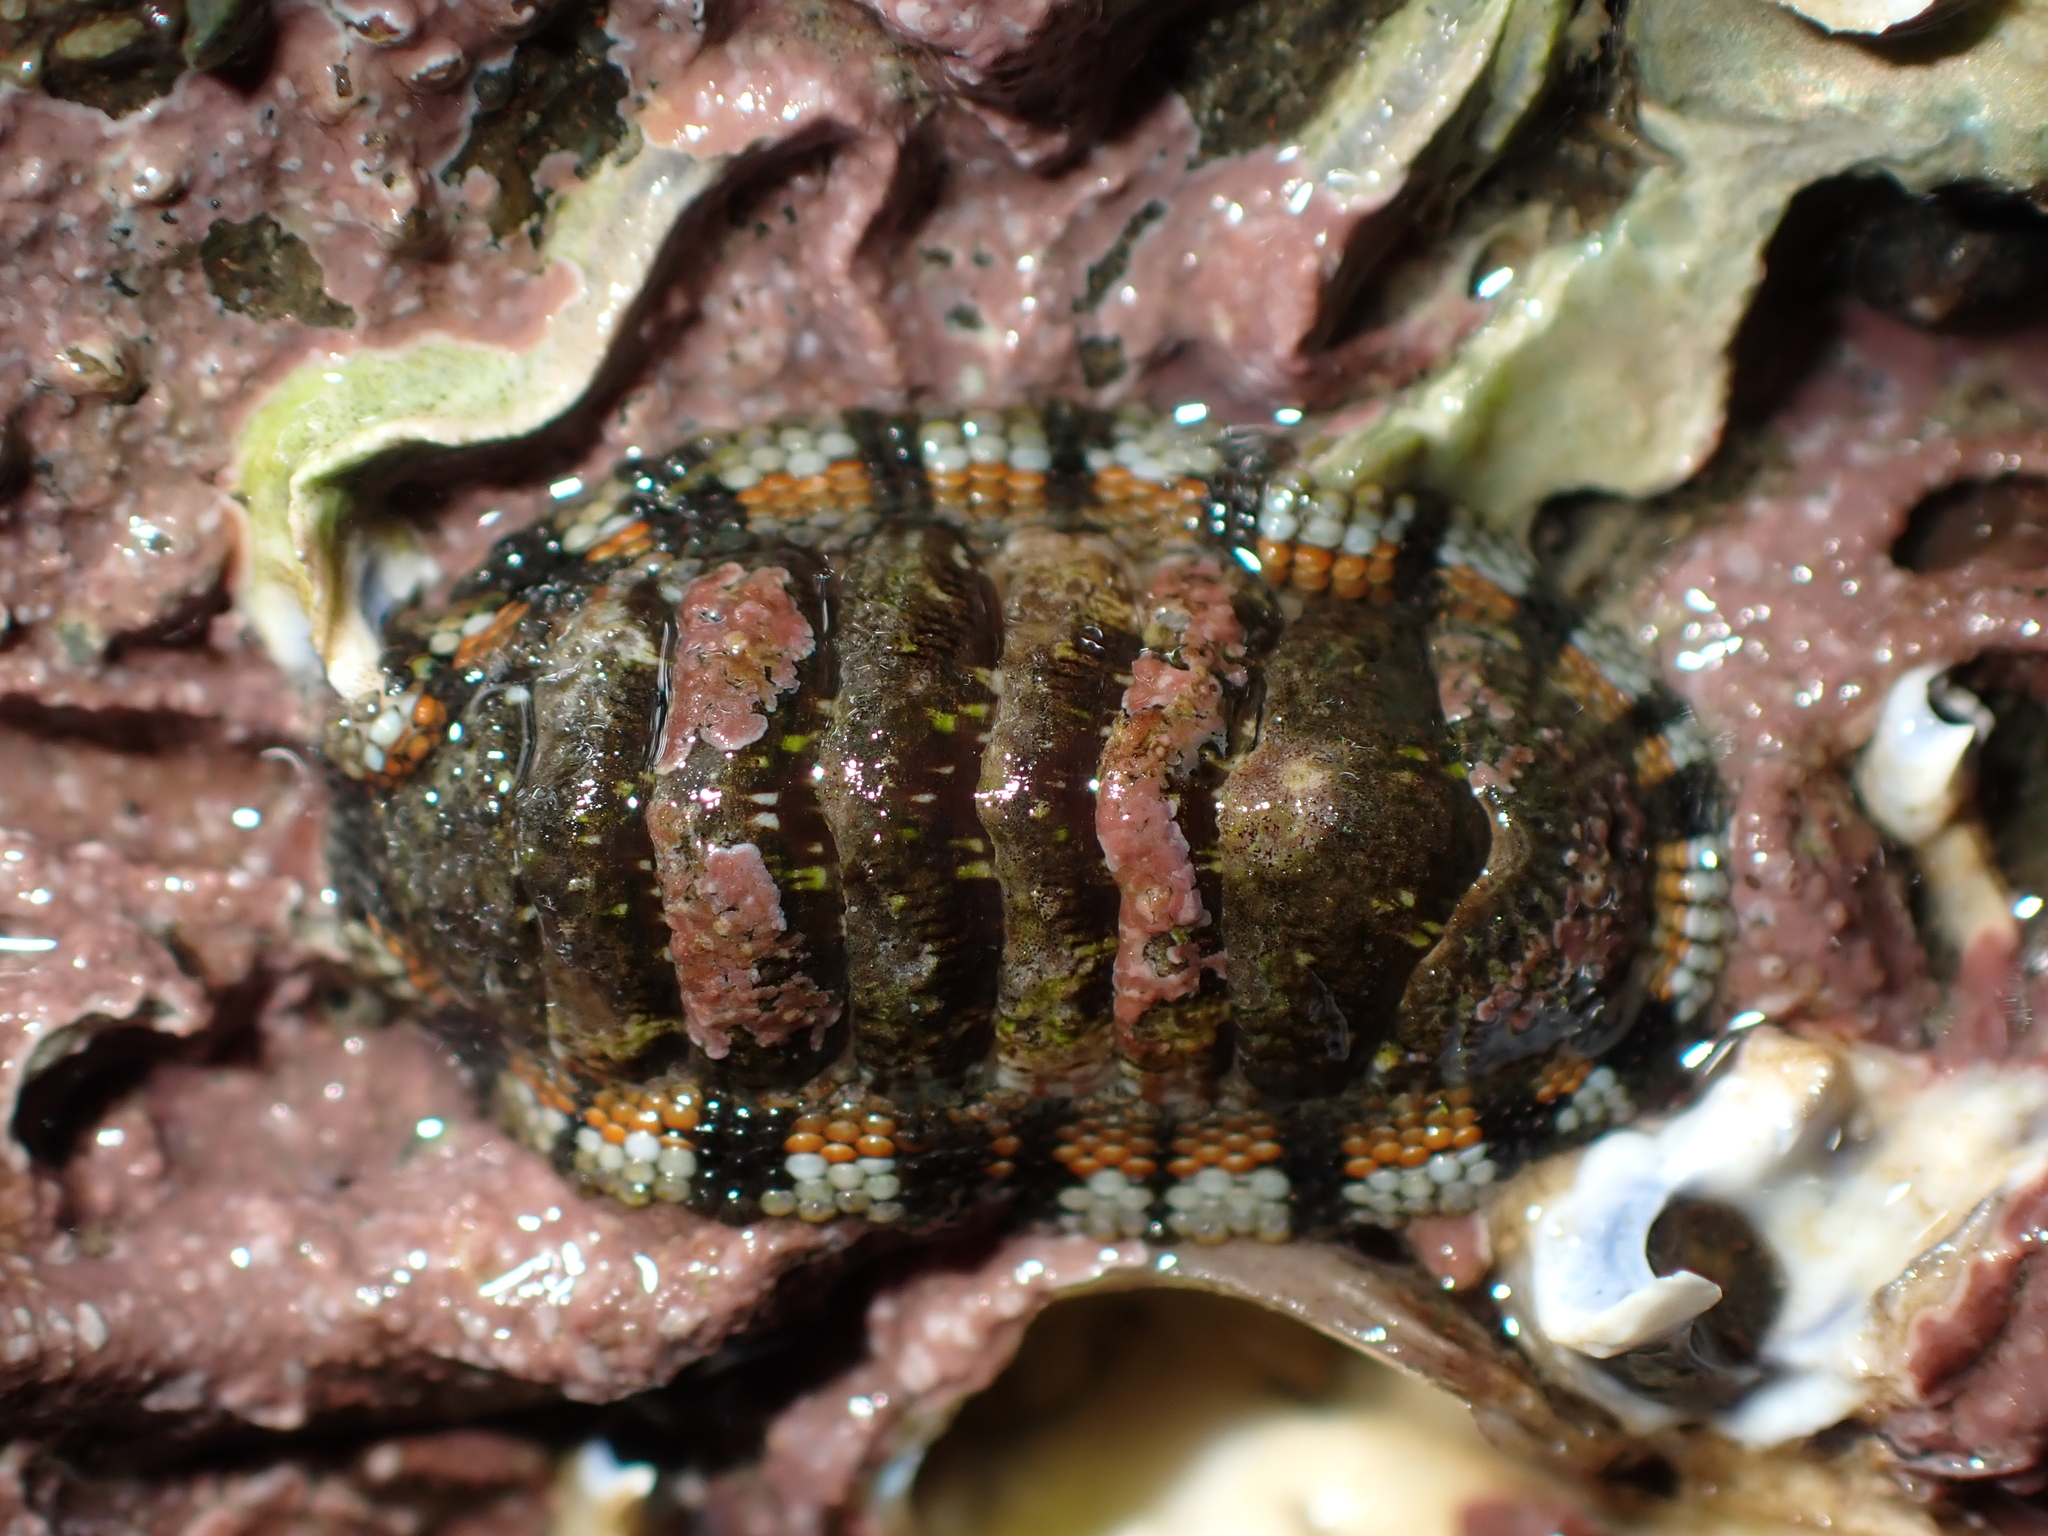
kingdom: Animalia
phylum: Mollusca
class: Polyplacophora
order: Chitonida
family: Chitonidae
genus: Sypharochiton
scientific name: Sypharochiton sinclairi
